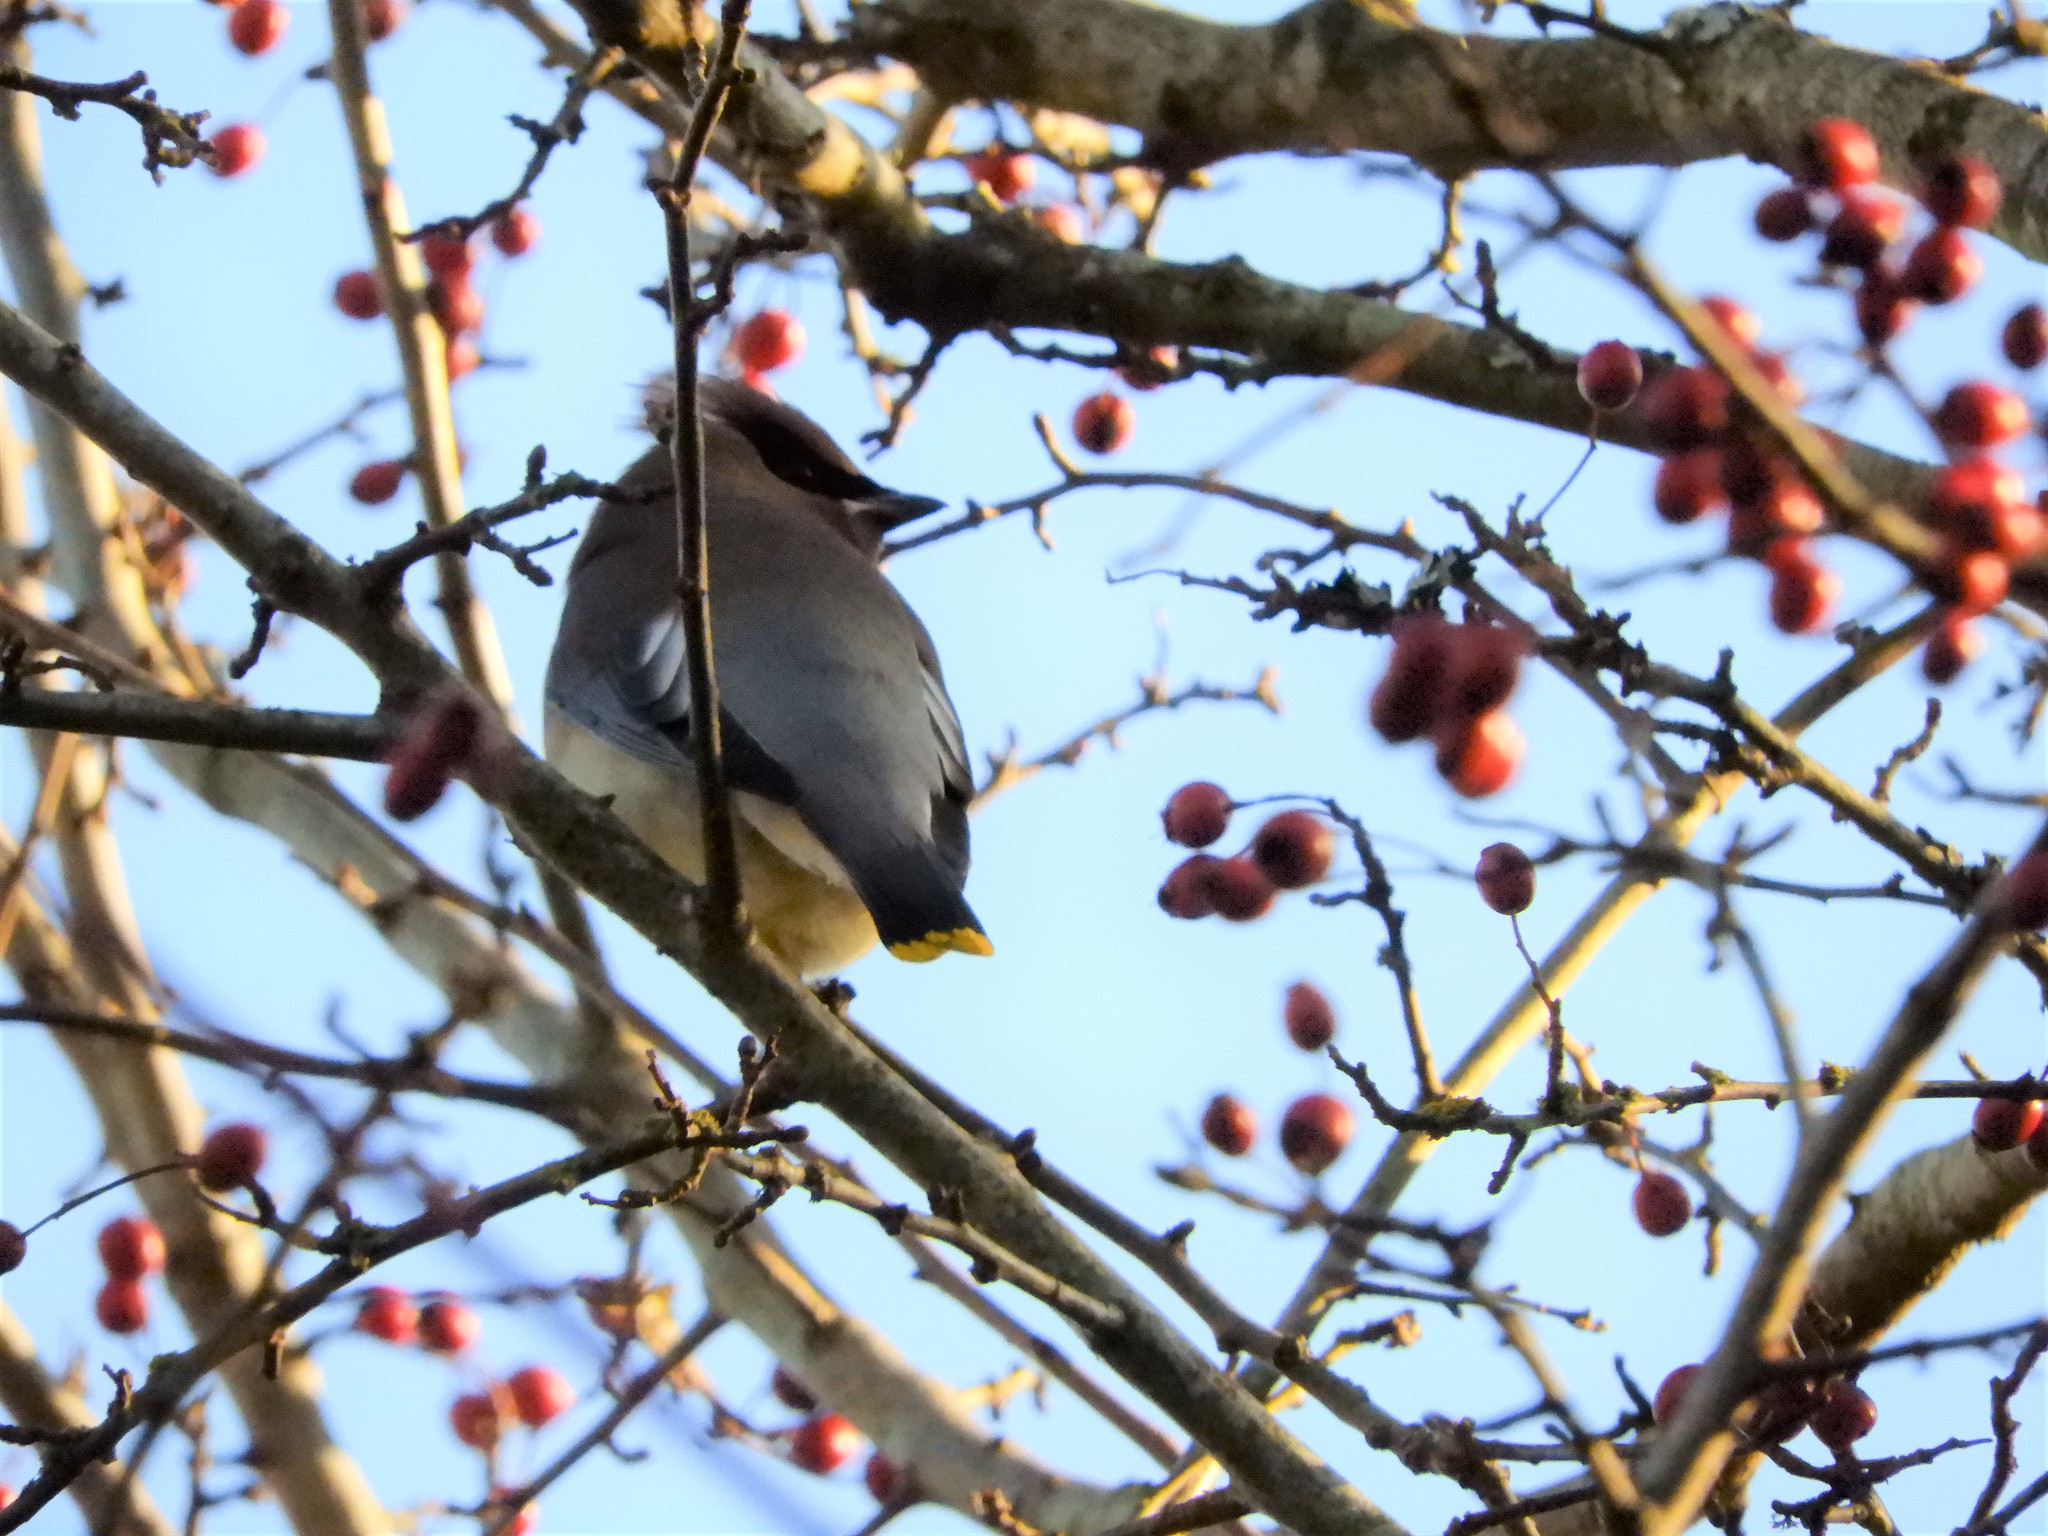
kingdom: Animalia
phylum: Chordata
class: Aves
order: Passeriformes
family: Bombycillidae
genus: Bombycilla
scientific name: Bombycilla cedrorum
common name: Cedar waxwing
